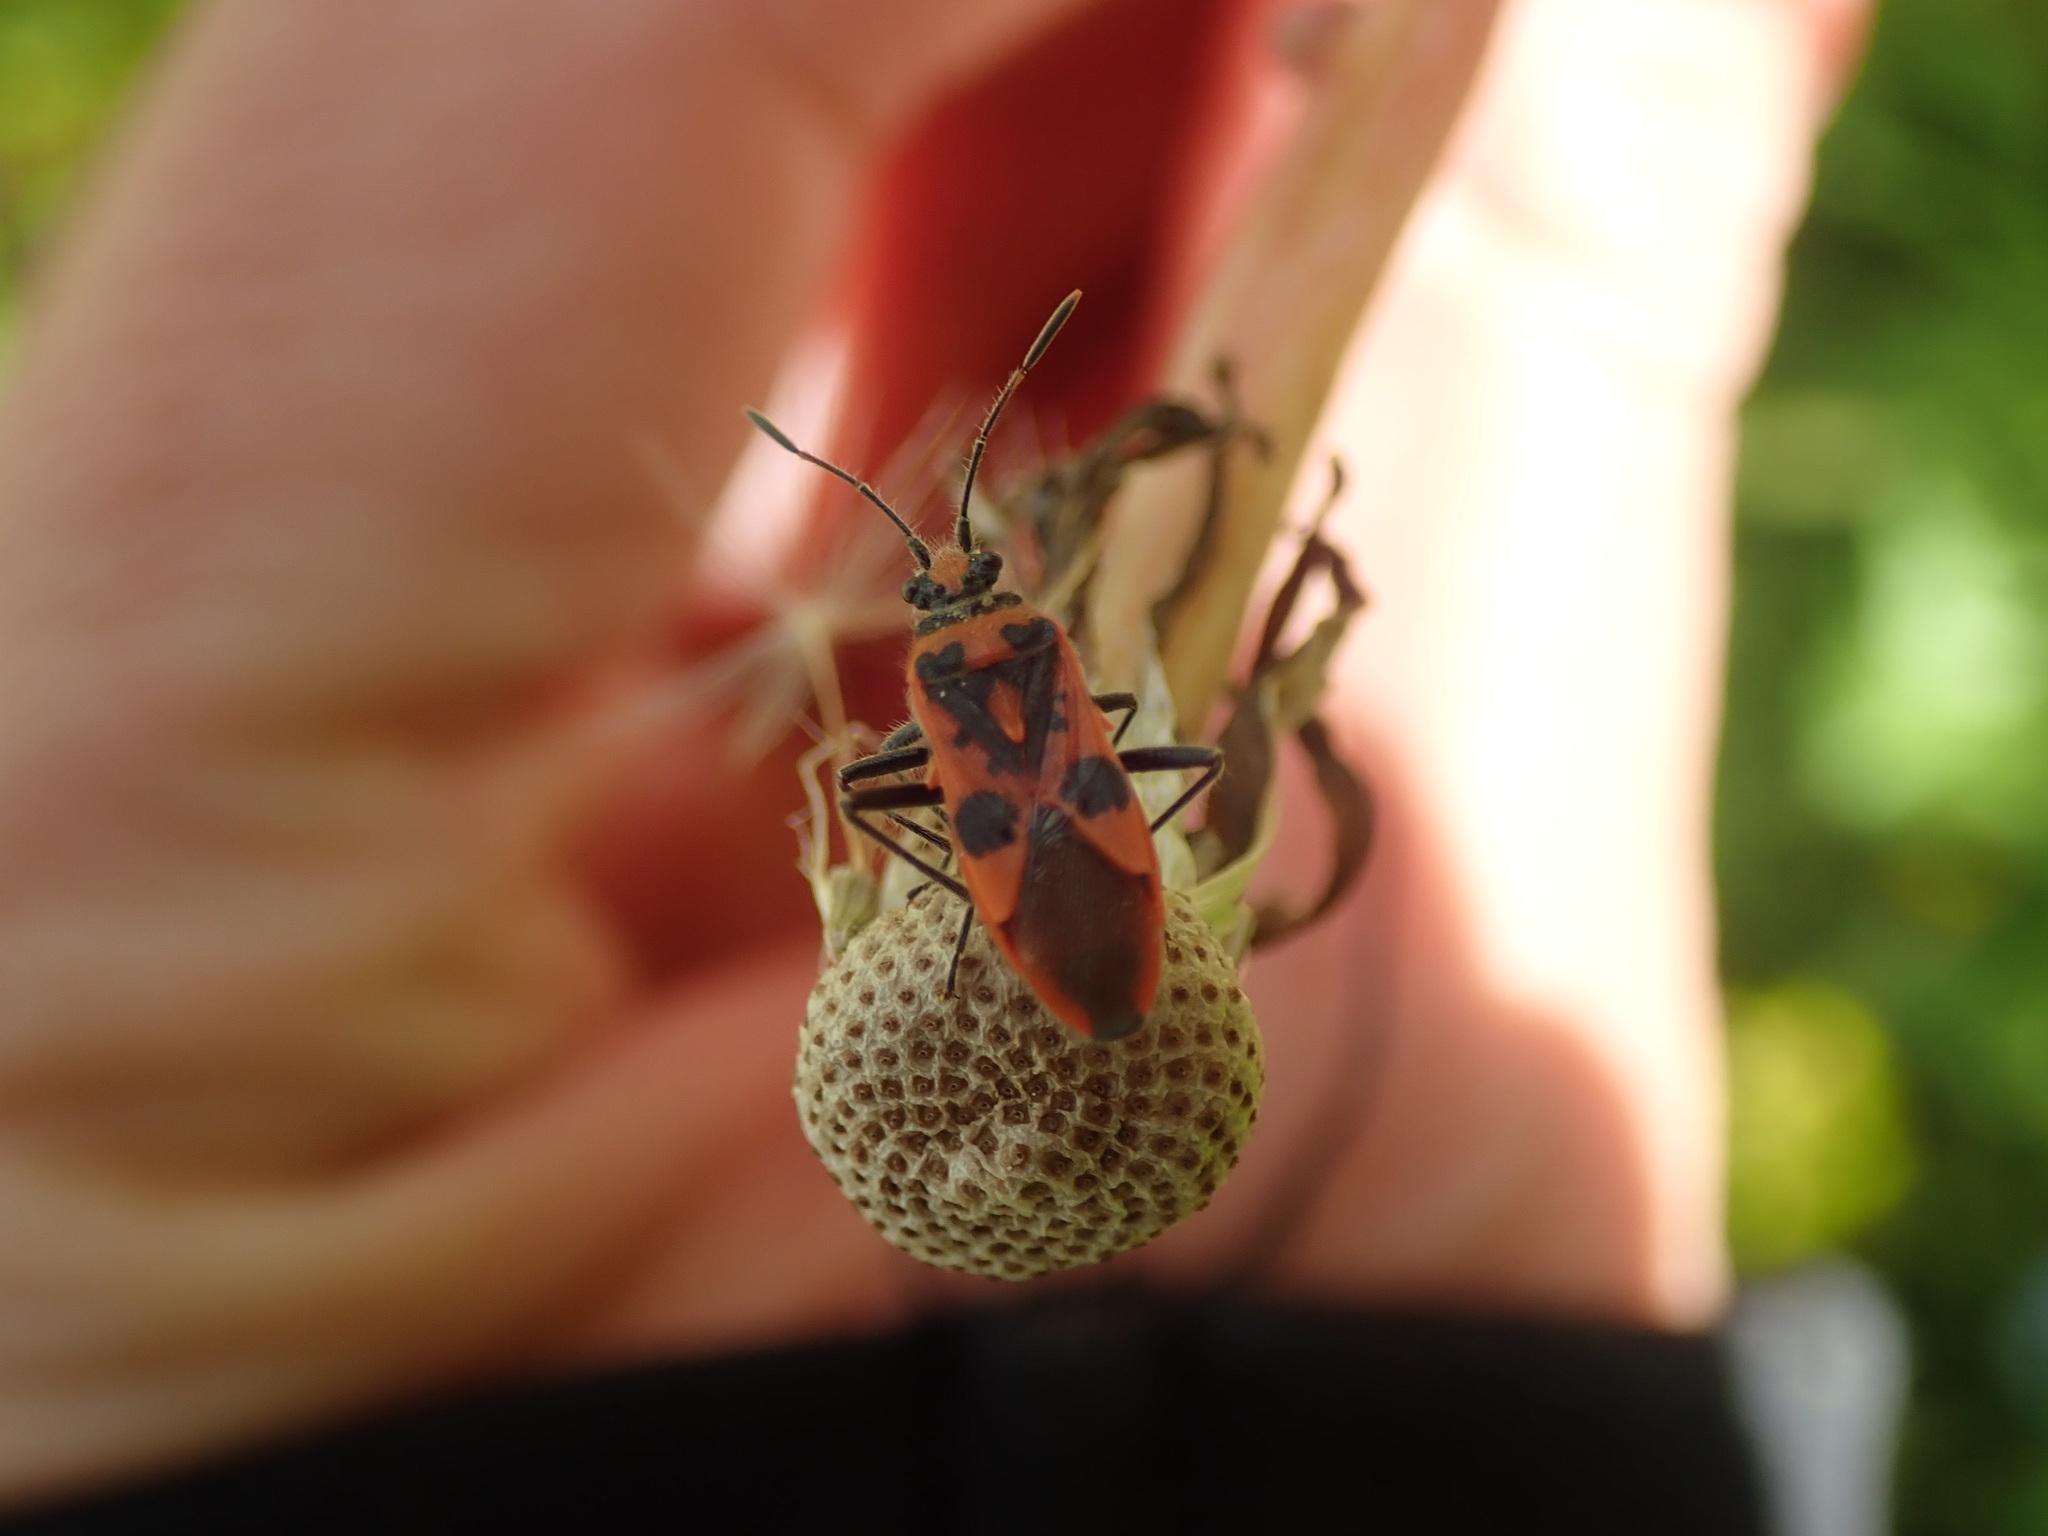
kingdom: Animalia
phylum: Arthropoda
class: Insecta
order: Hemiptera
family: Rhopalidae
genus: Corizus
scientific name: Corizus hyoscyami
